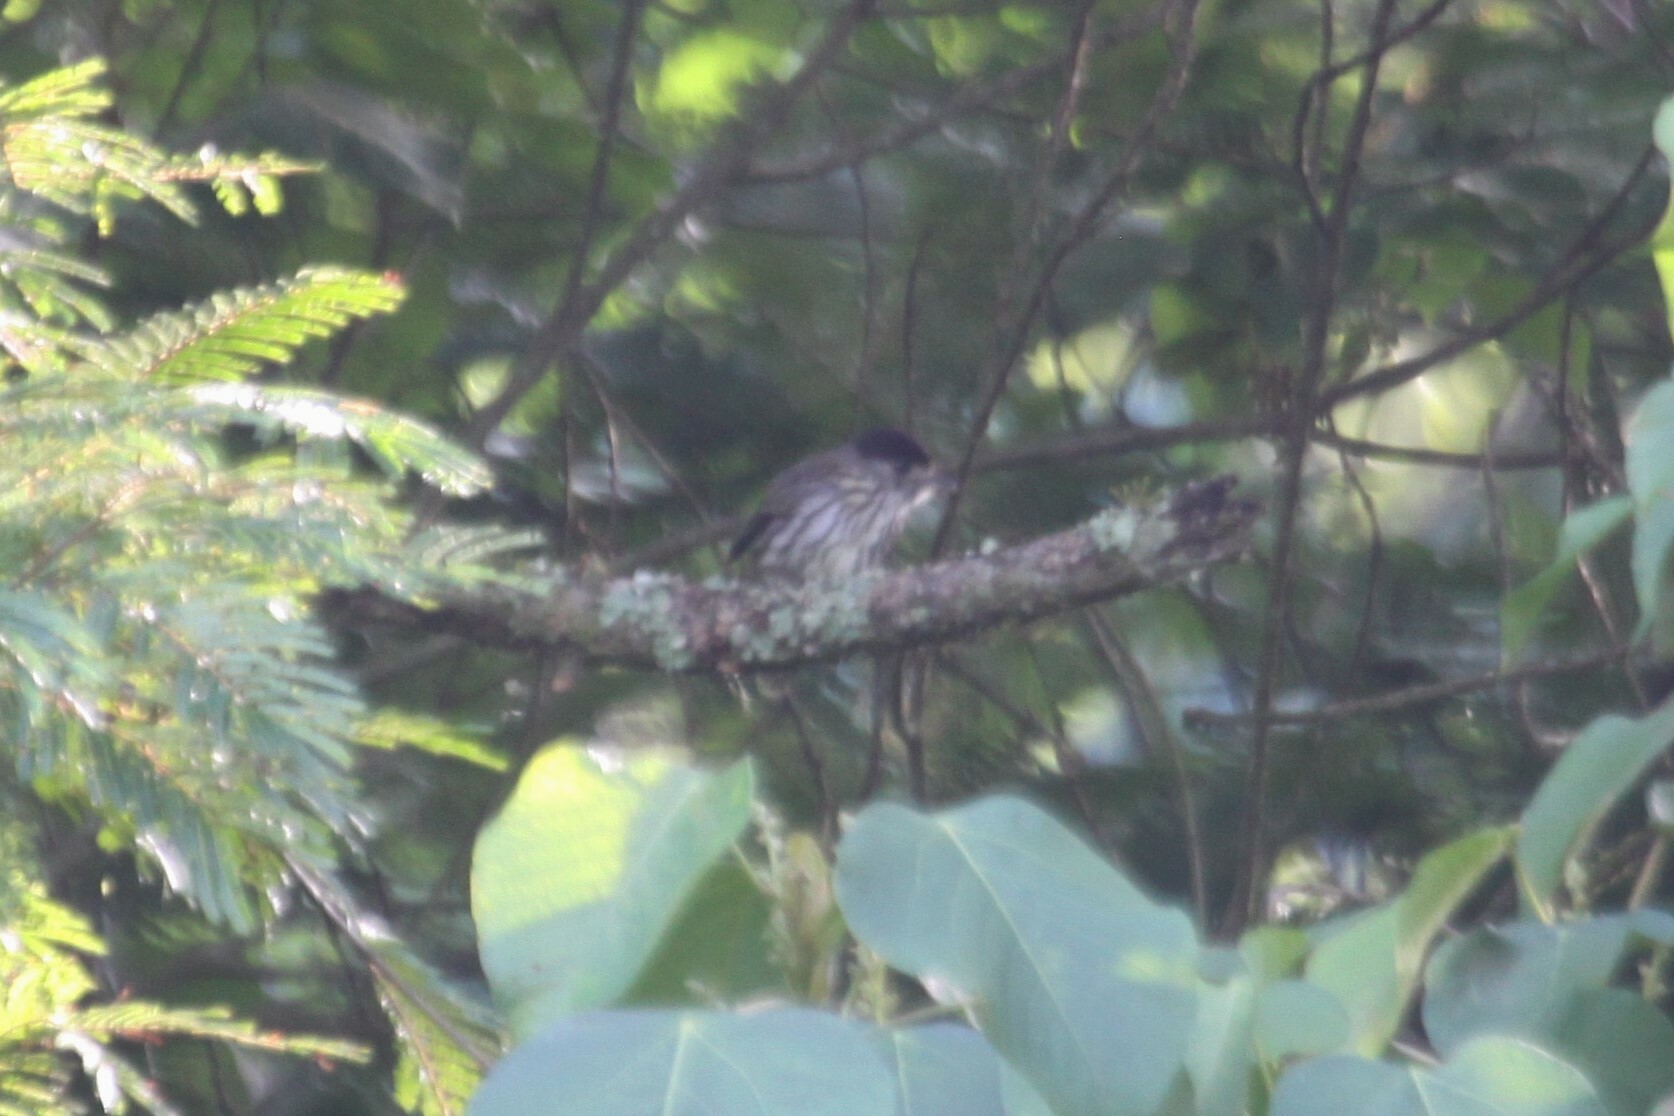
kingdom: Animalia
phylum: Chordata
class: Aves
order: Passeriformes
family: Eurylaimidae
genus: Smithornis
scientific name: Smithornis capensis
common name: African broadbill
